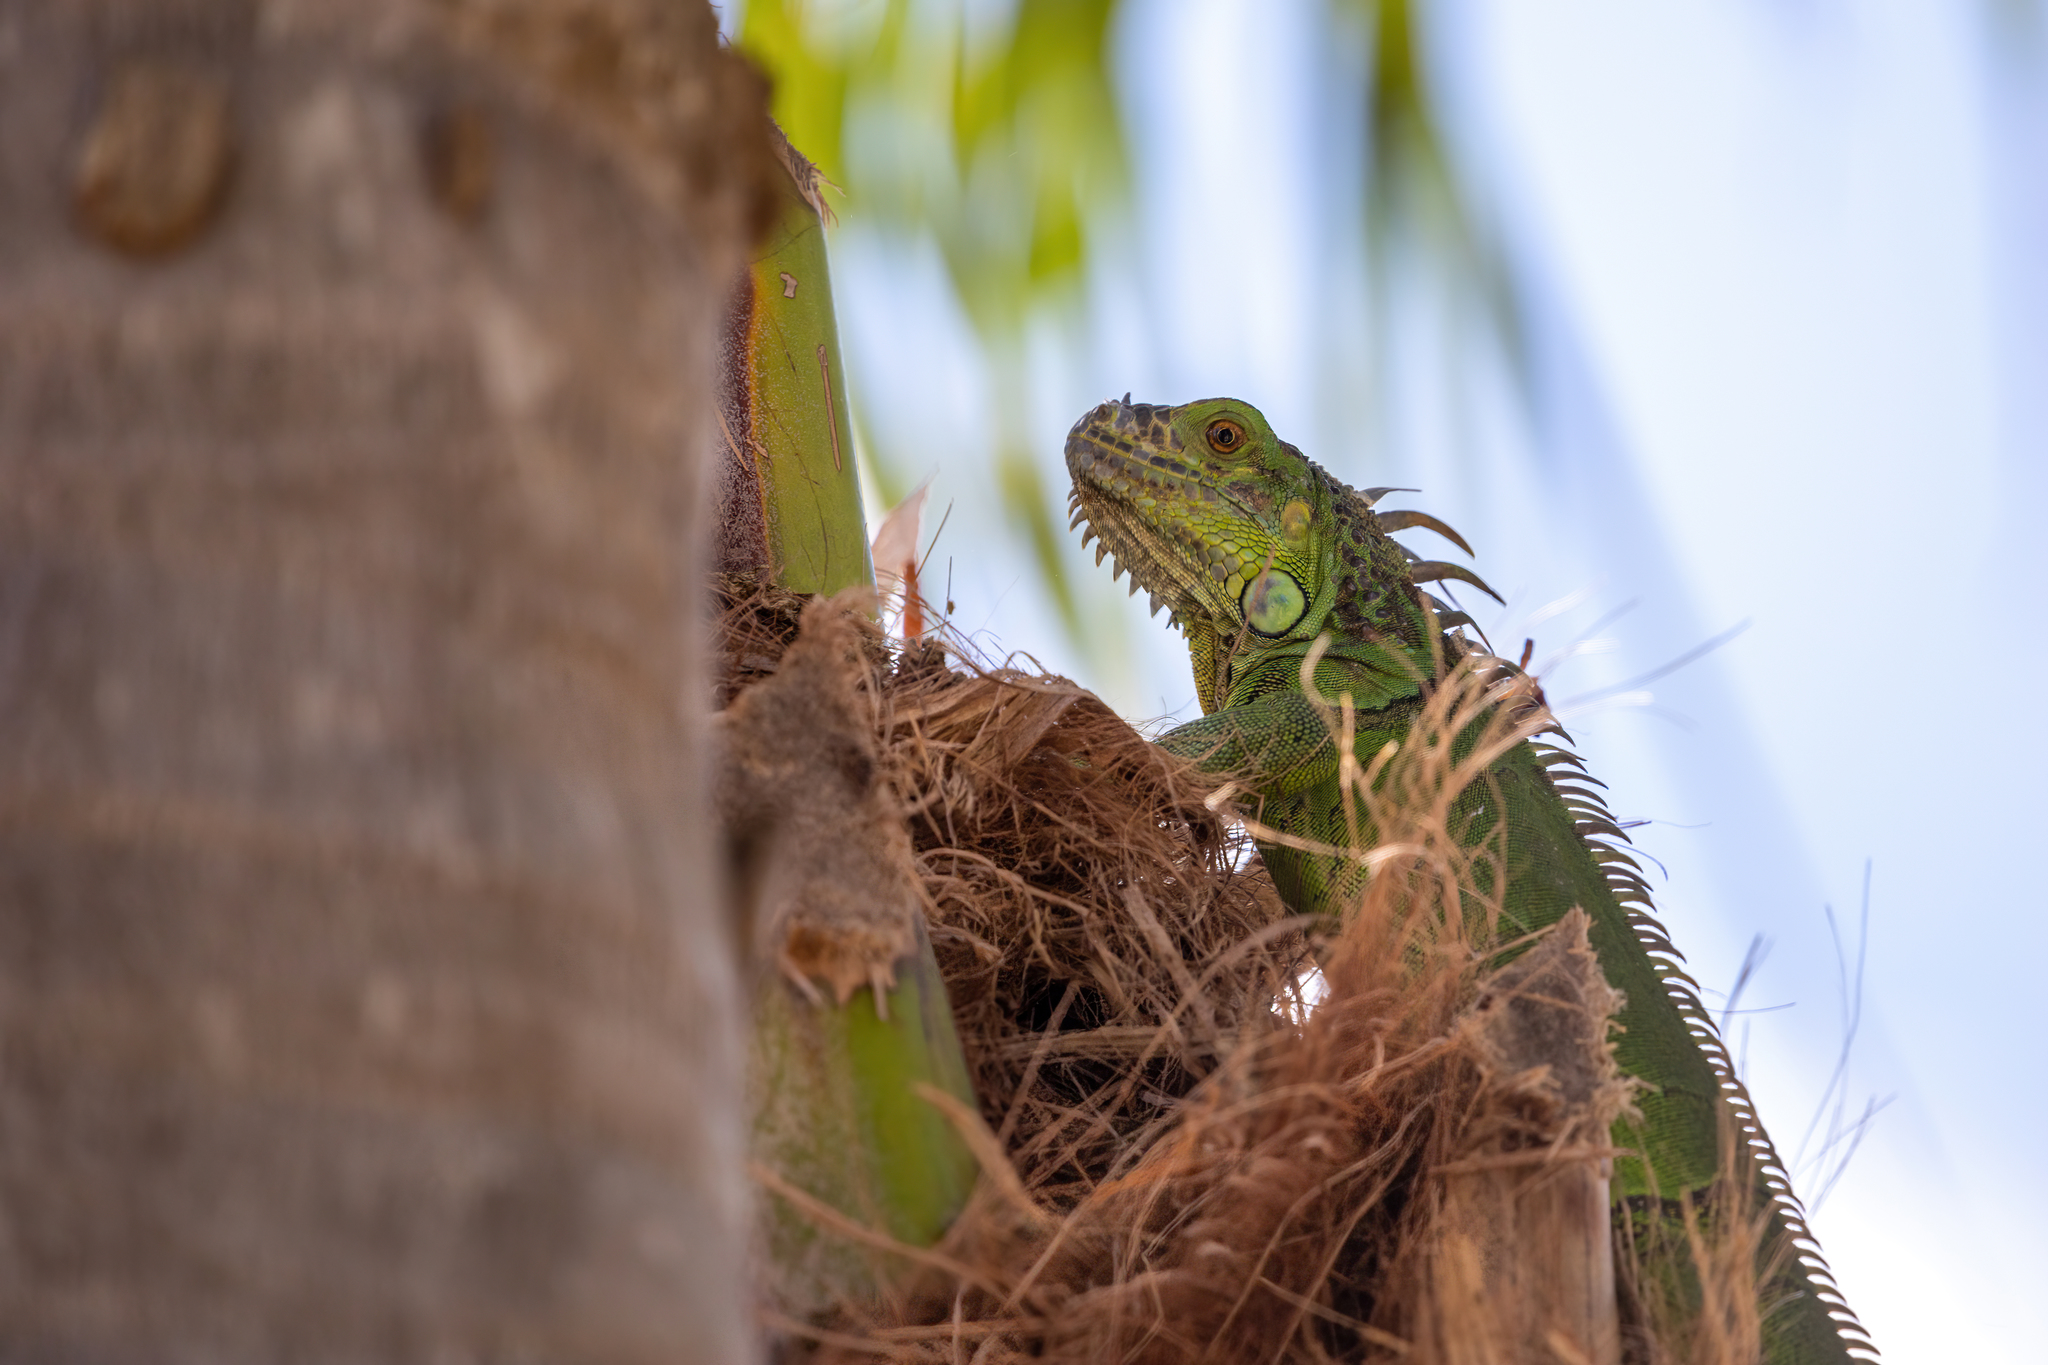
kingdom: Animalia
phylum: Chordata
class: Squamata
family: Iguanidae
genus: Iguana
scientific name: Iguana iguana
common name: Green iguana
